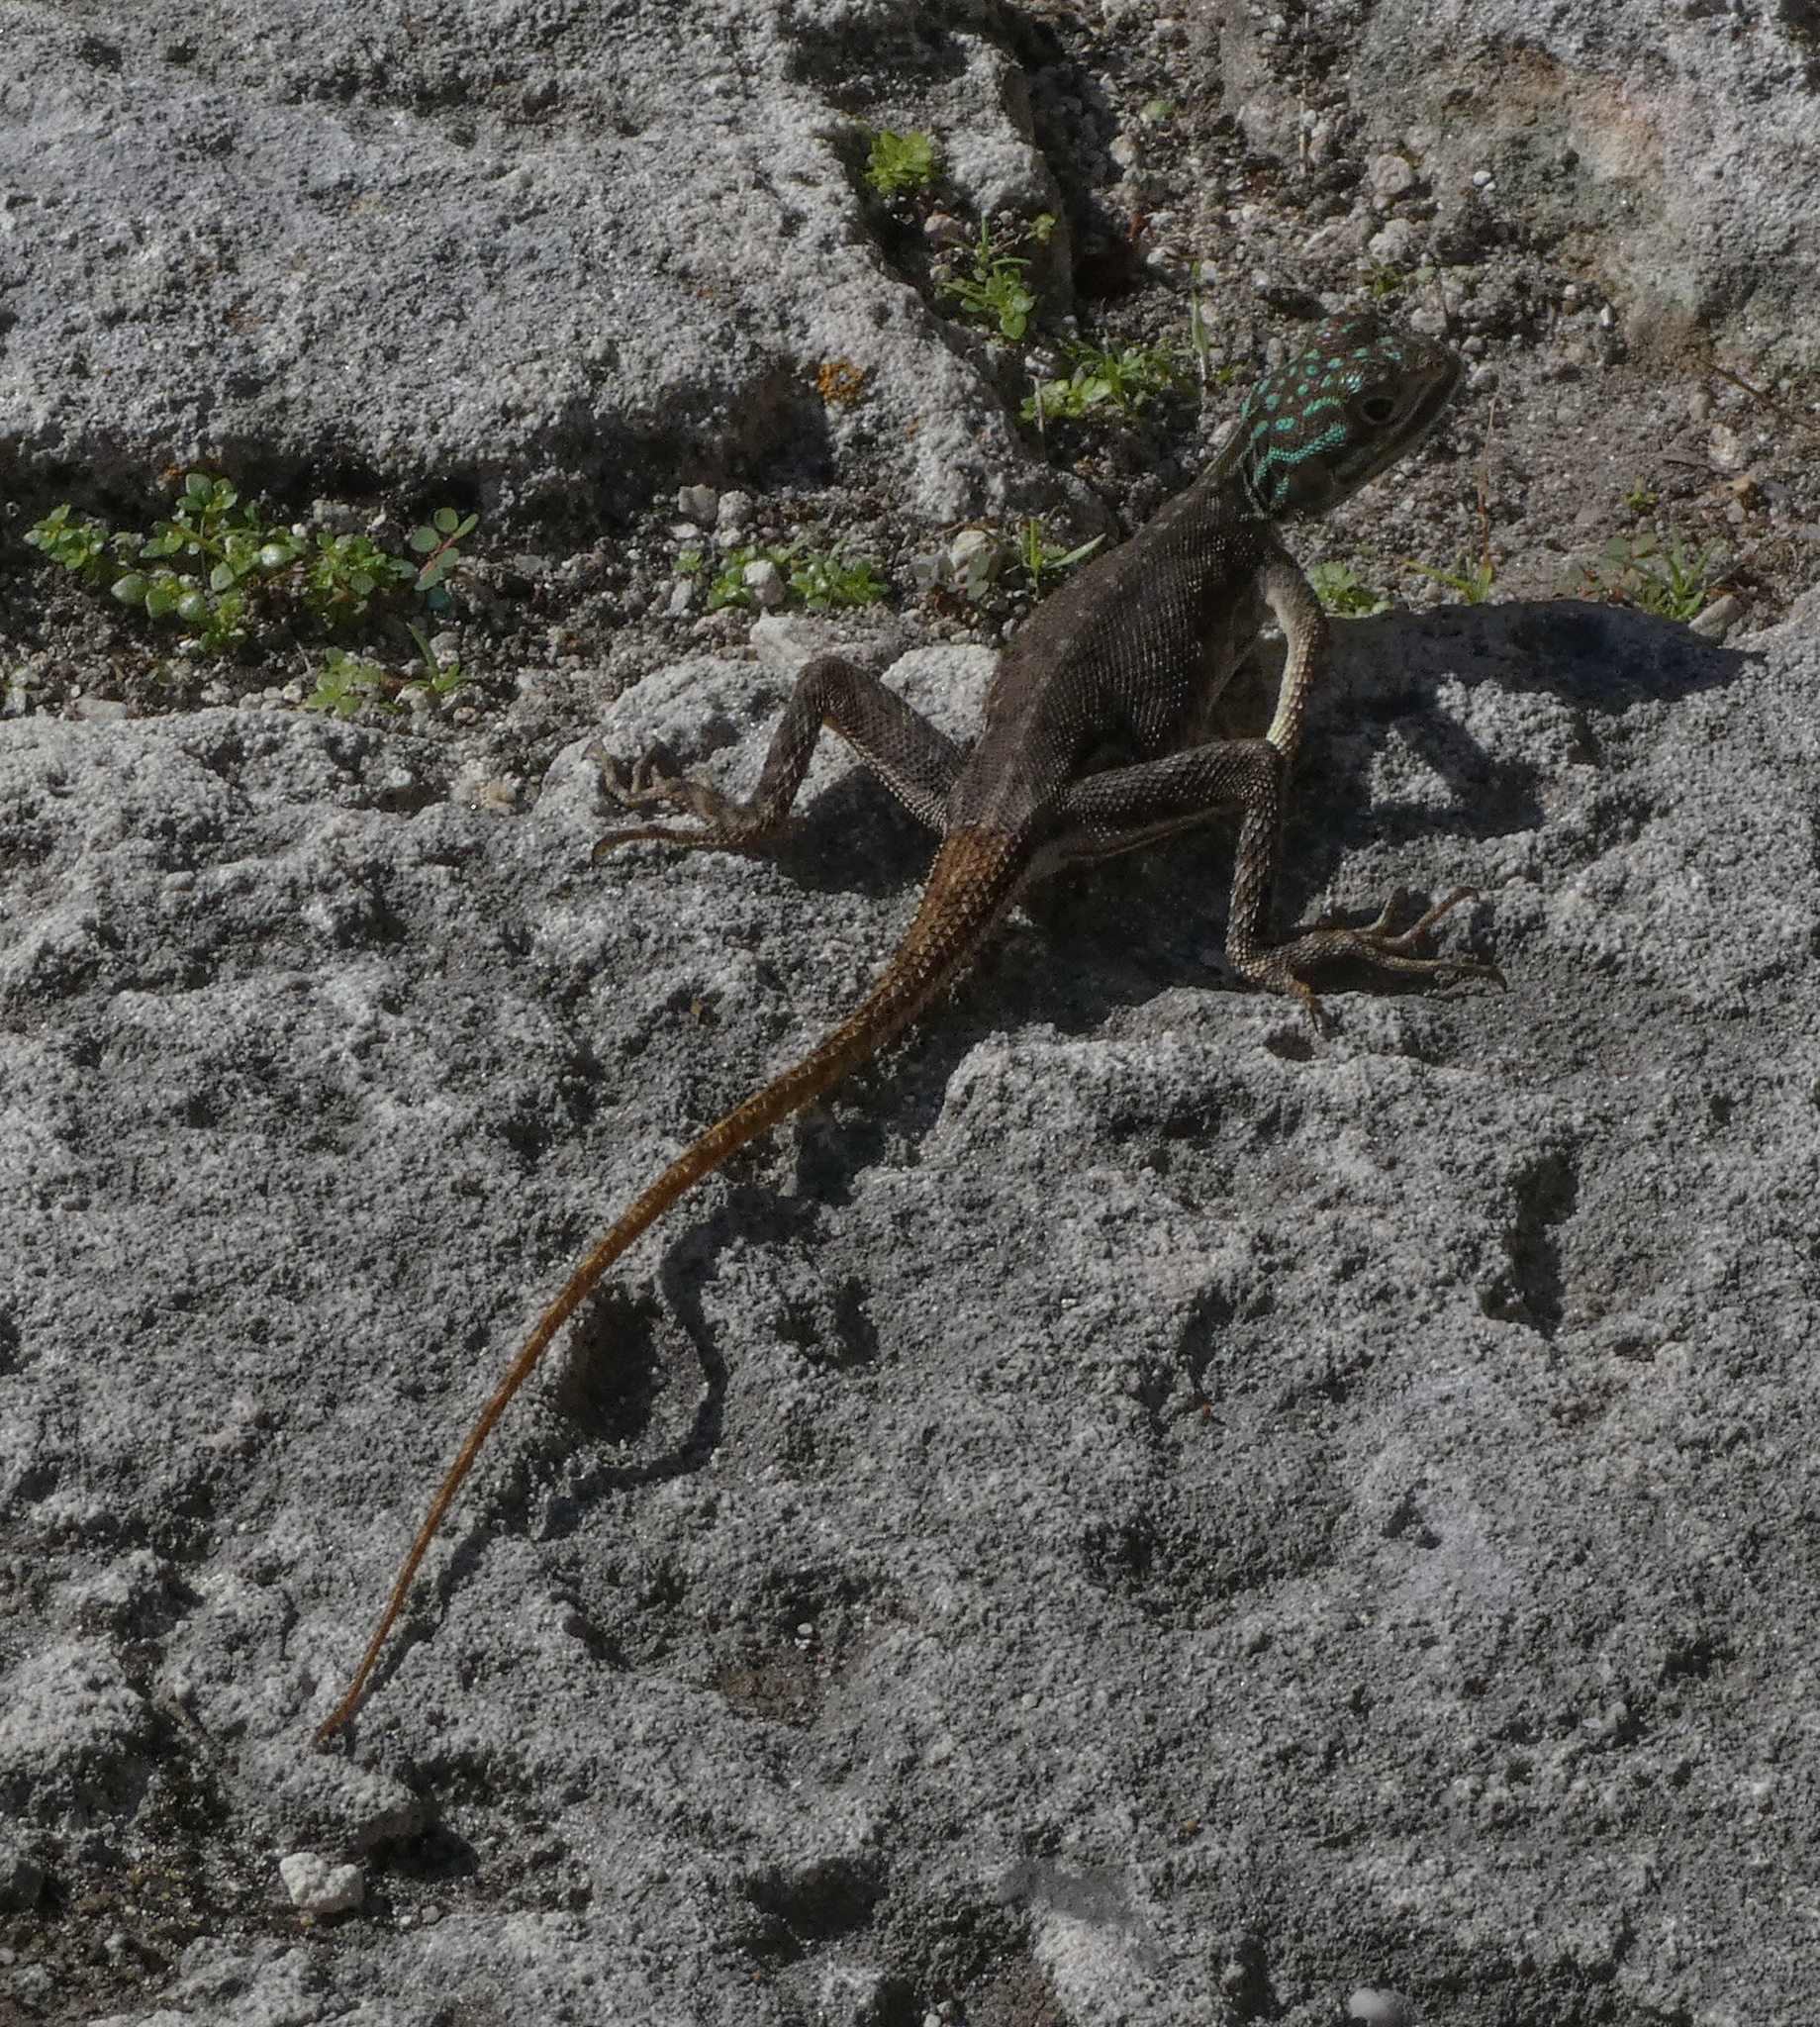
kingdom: Animalia
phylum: Chordata
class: Squamata
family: Agamidae
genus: Agama
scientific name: Agama picticauda
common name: Red-headed agama
